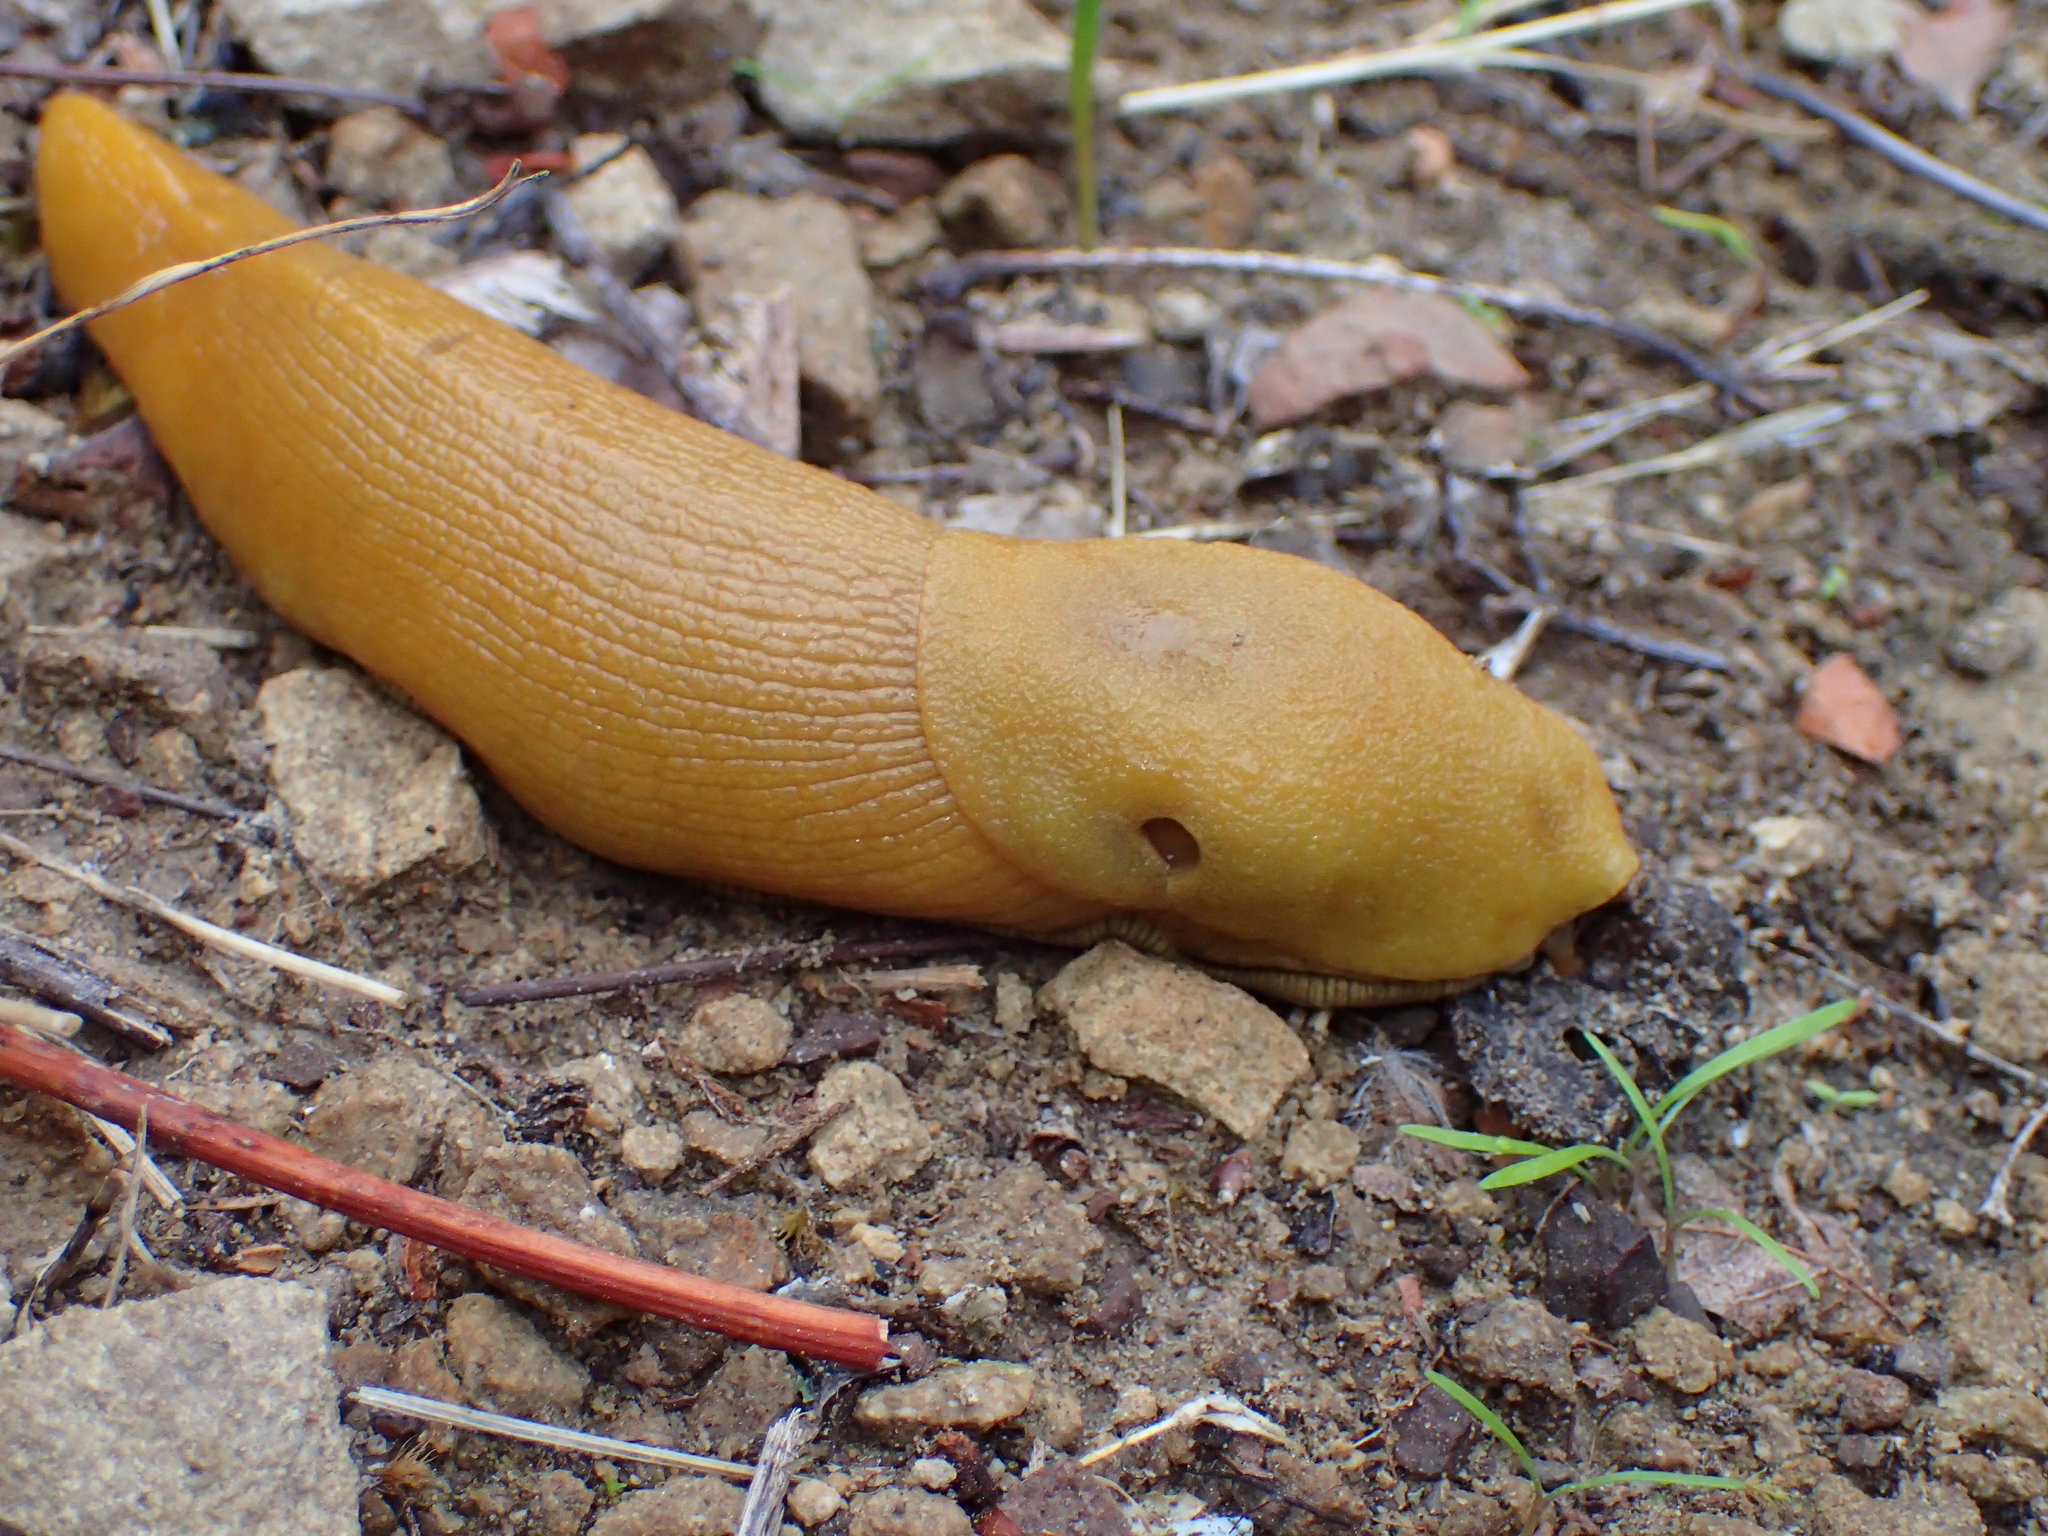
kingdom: Animalia
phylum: Mollusca
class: Gastropoda
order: Stylommatophora
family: Ariolimacidae
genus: Ariolimax
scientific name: Ariolimax stramineus
